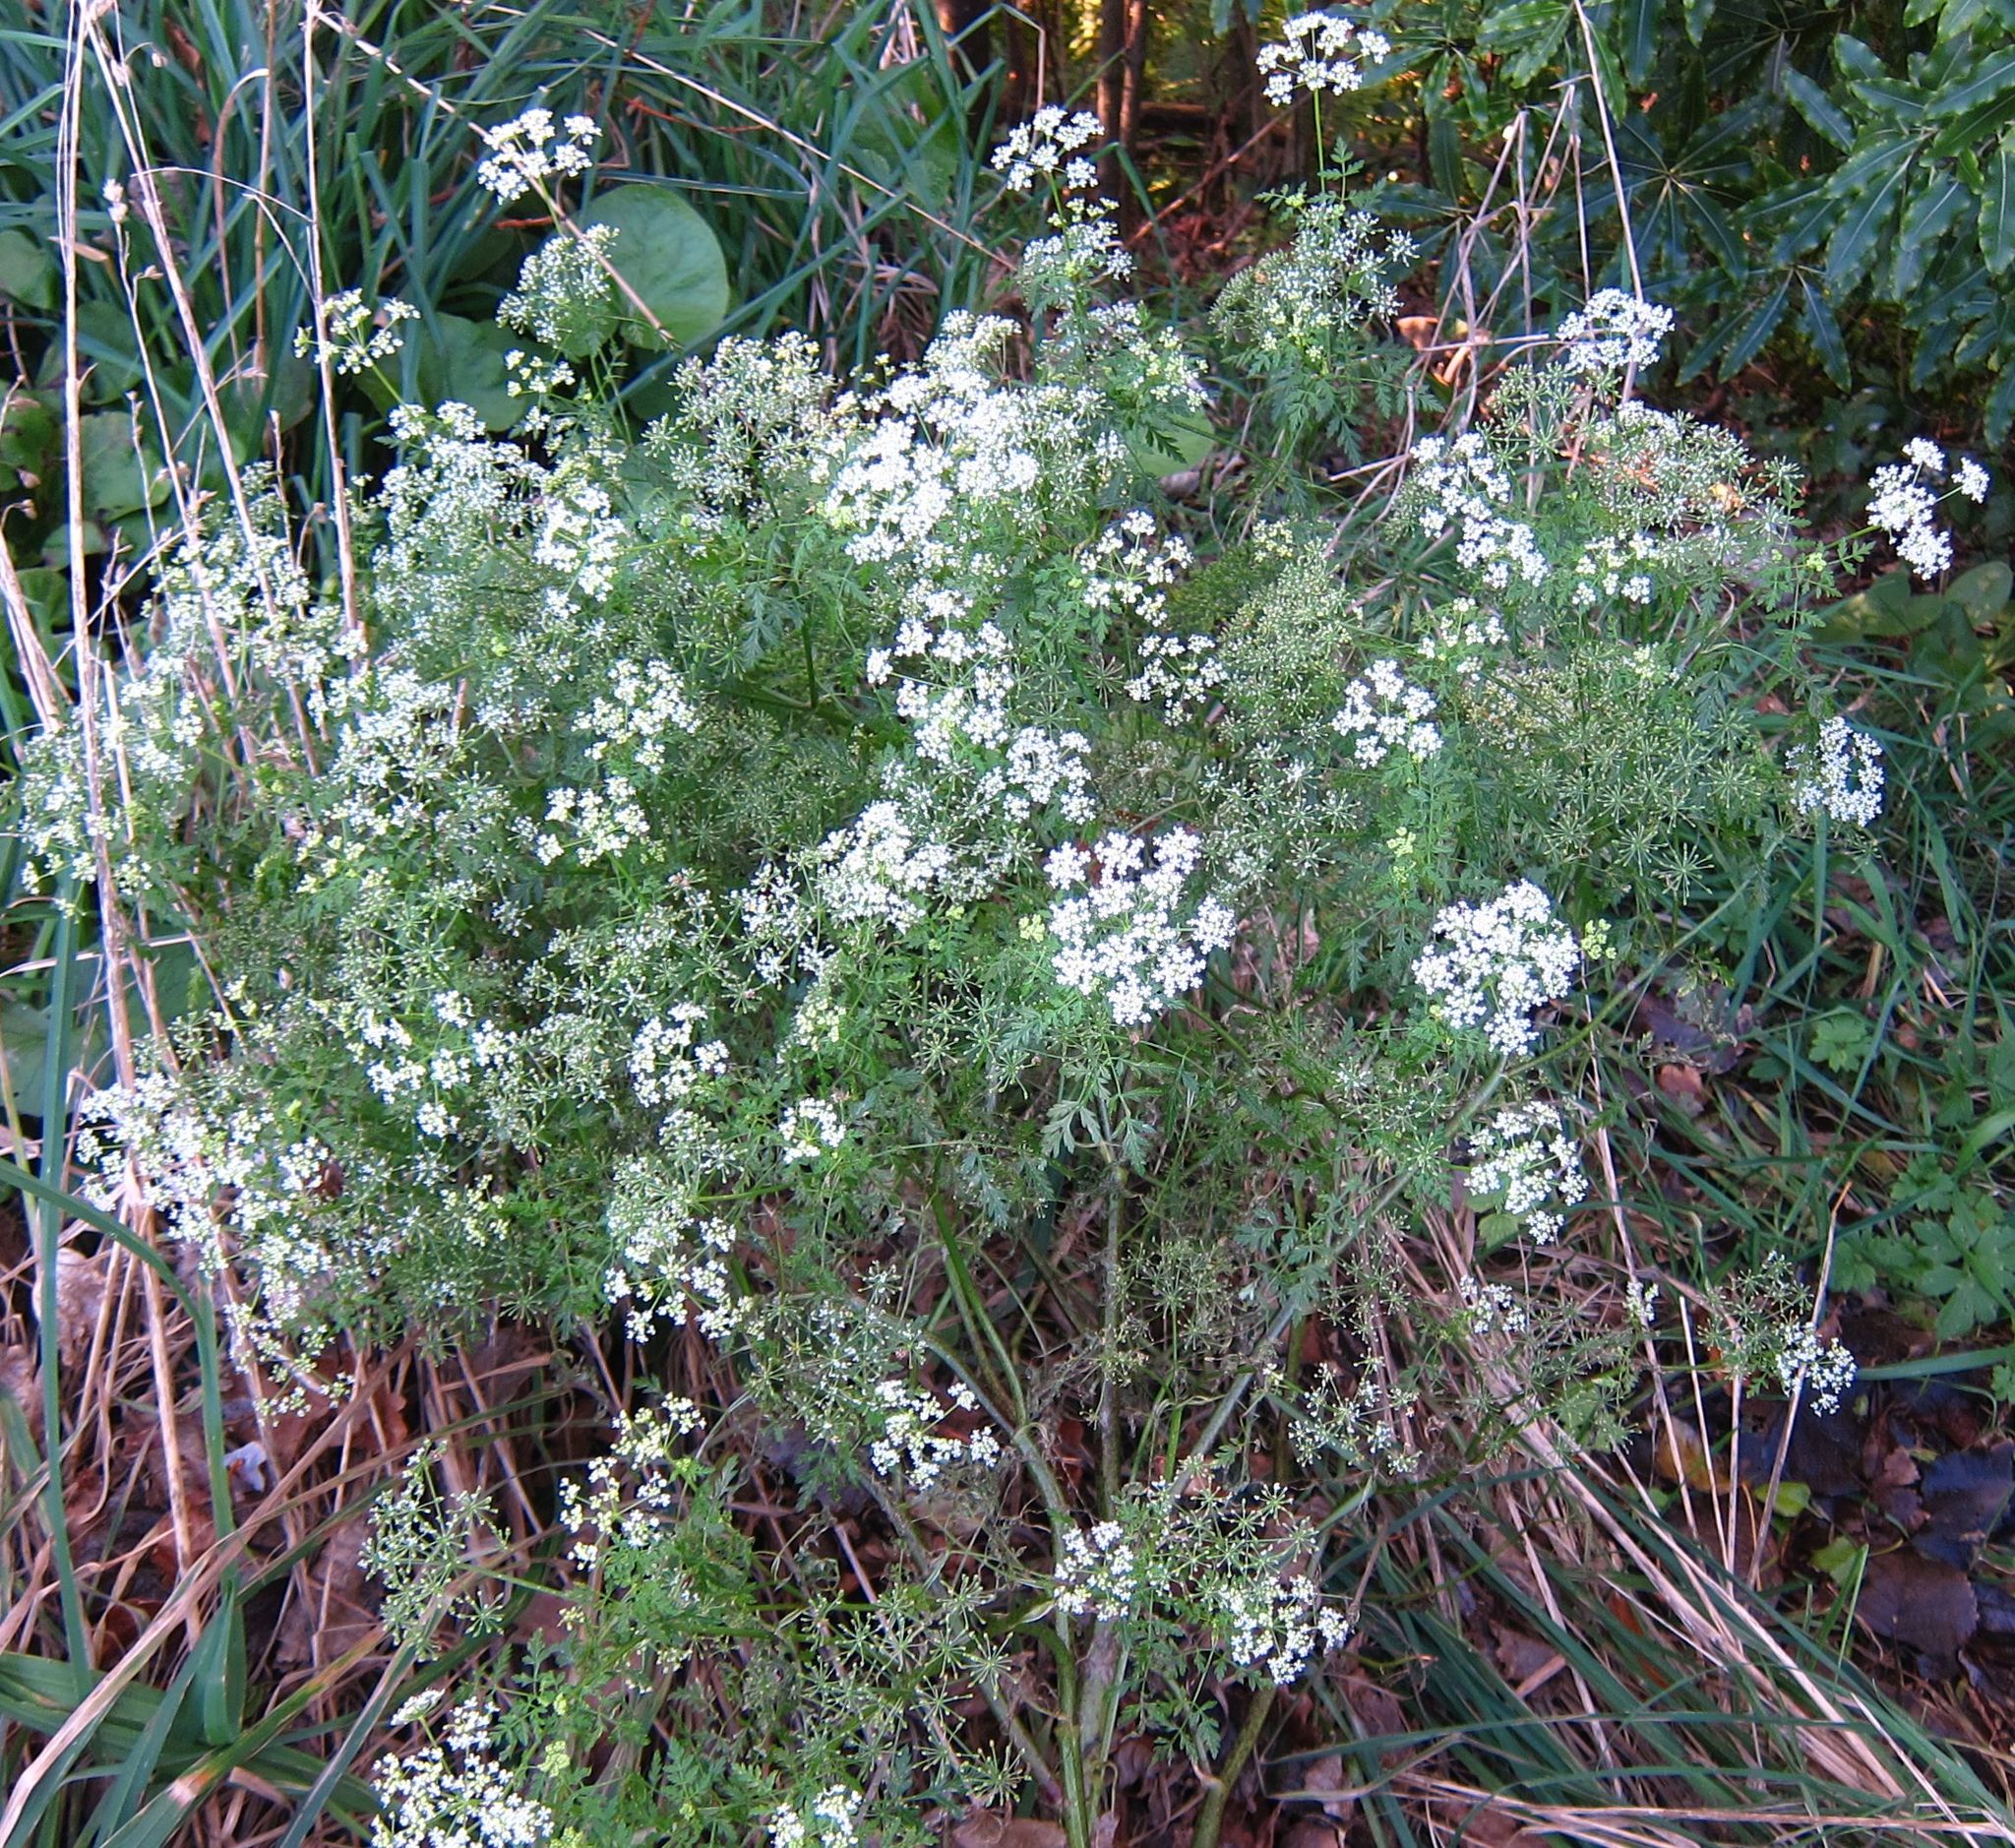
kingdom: Plantae
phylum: Tracheophyta
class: Magnoliopsida
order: Apiales
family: Apiaceae
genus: Conium
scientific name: Conium maculatum
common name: Hemlock
